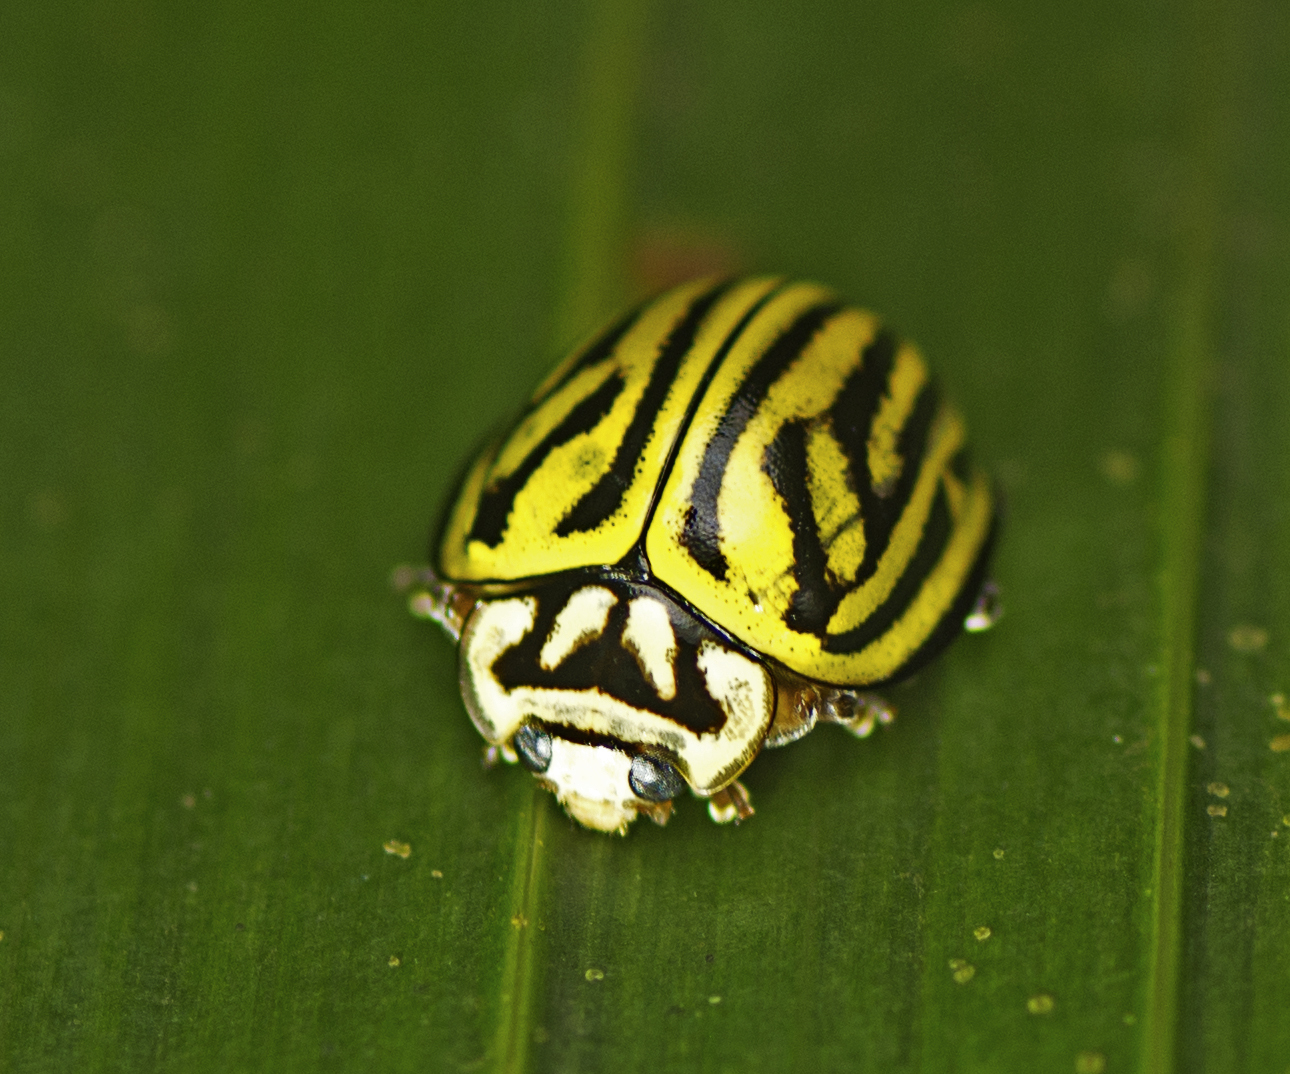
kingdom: Animalia
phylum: Arthropoda
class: Insecta
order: Coleoptera
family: Coccinellidae
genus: Archegleis
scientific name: Archegleis
